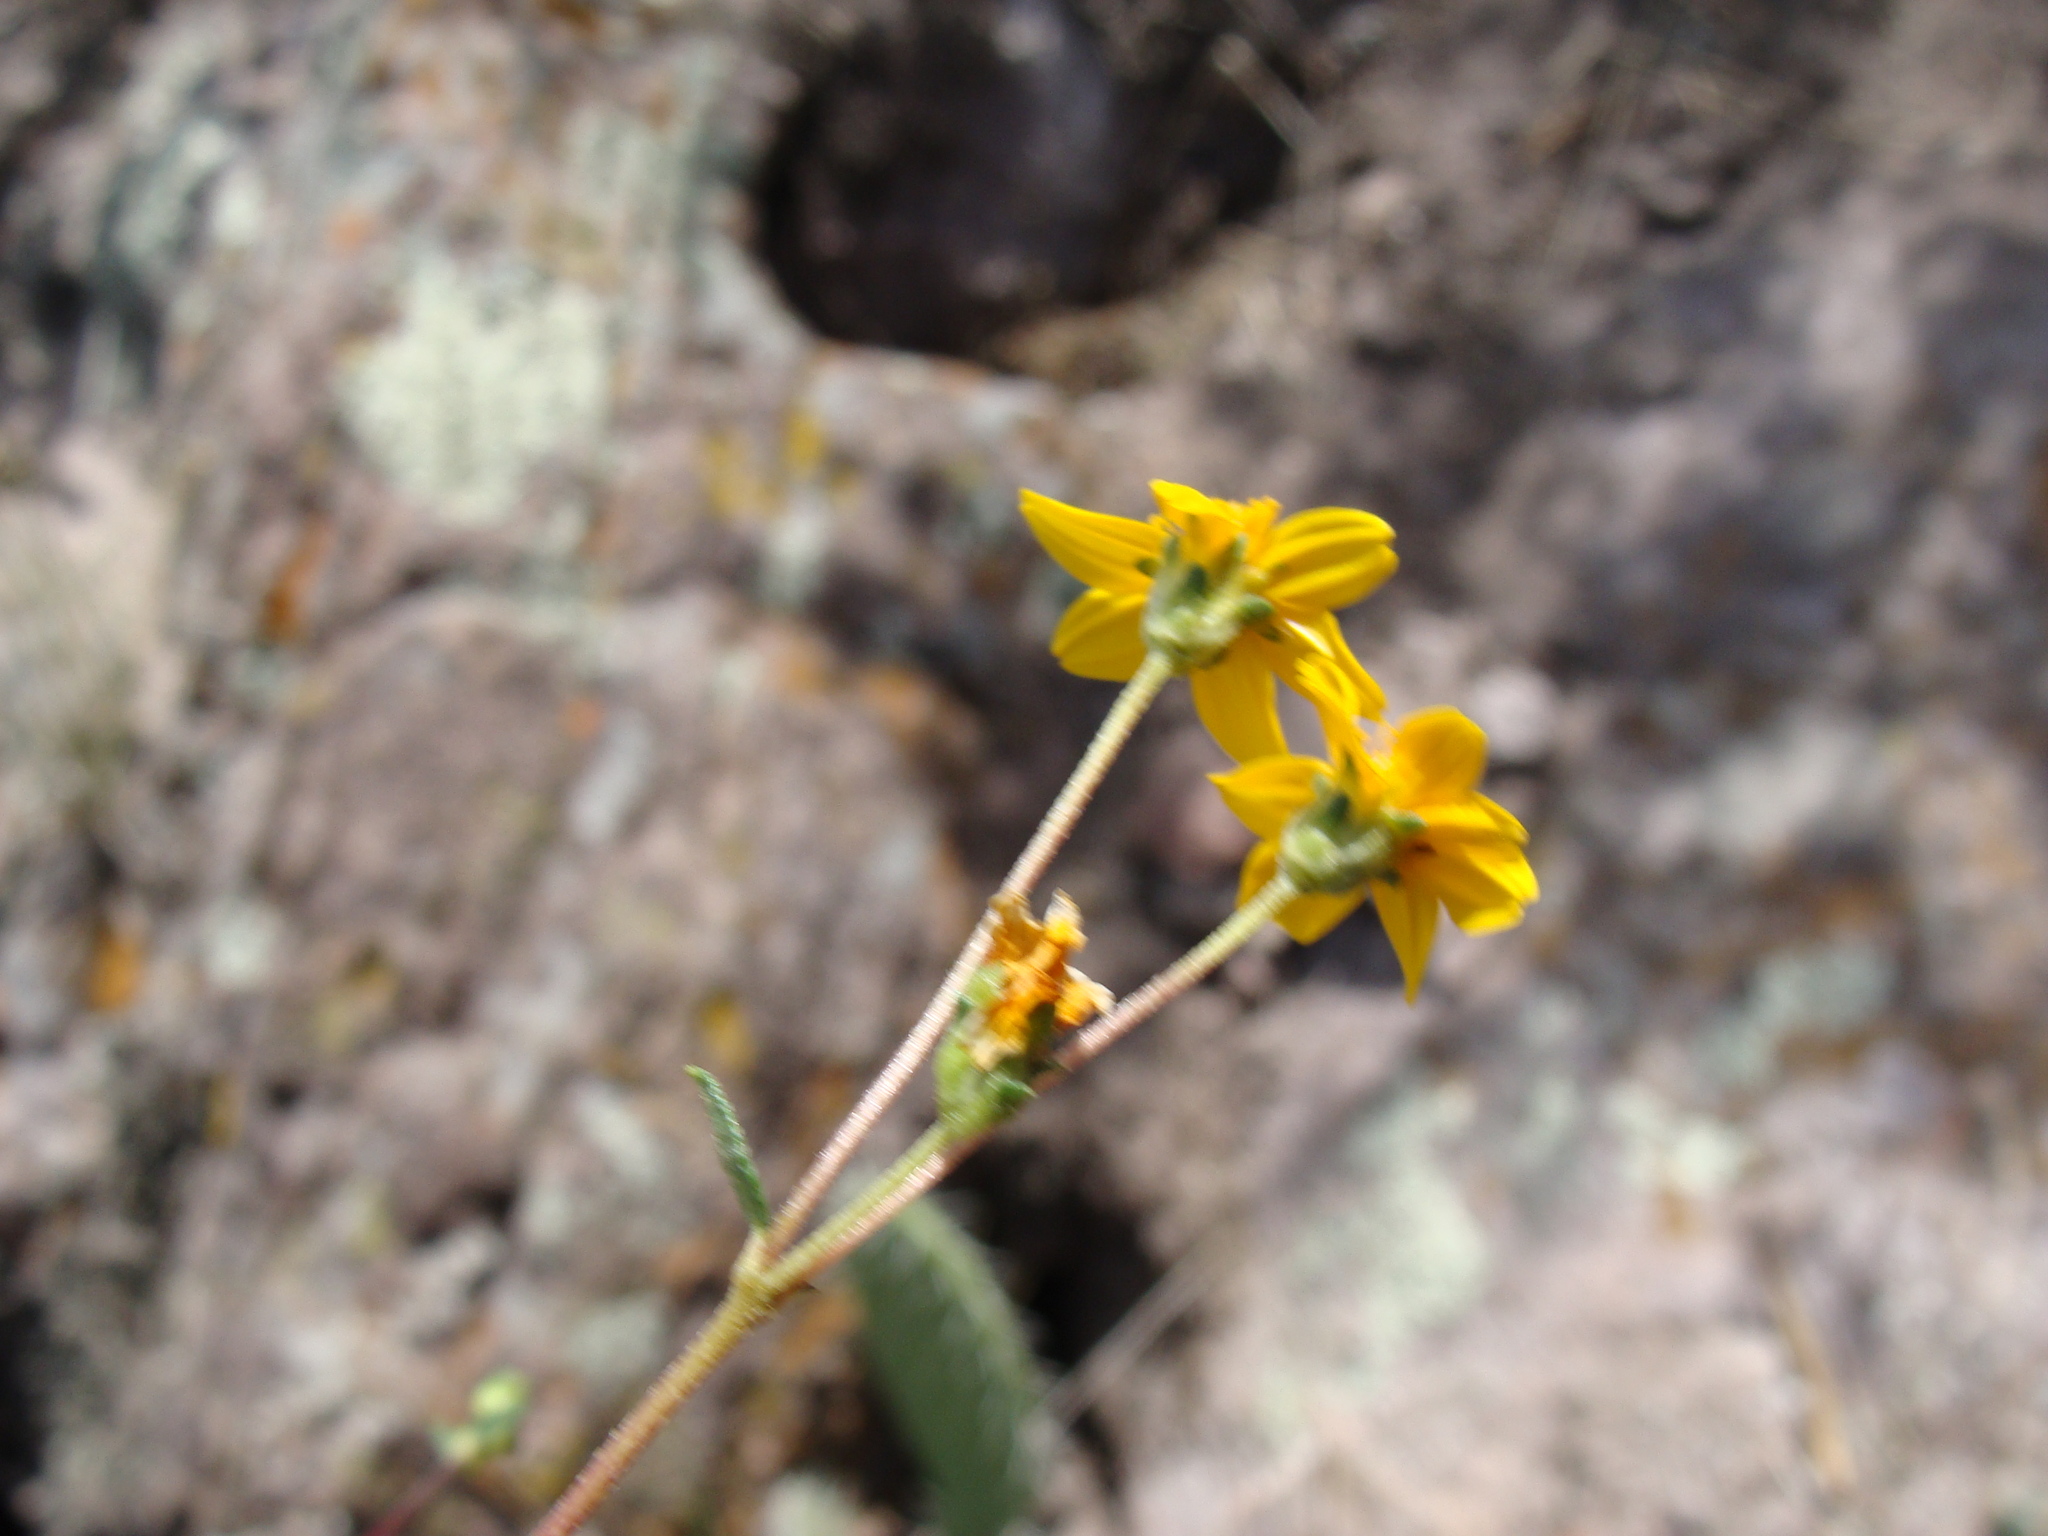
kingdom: Plantae
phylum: Tracheophyta
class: Magnoliopsida
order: Asterales
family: Asteraceae
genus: Perymenium
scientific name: Perymenium mendezii
